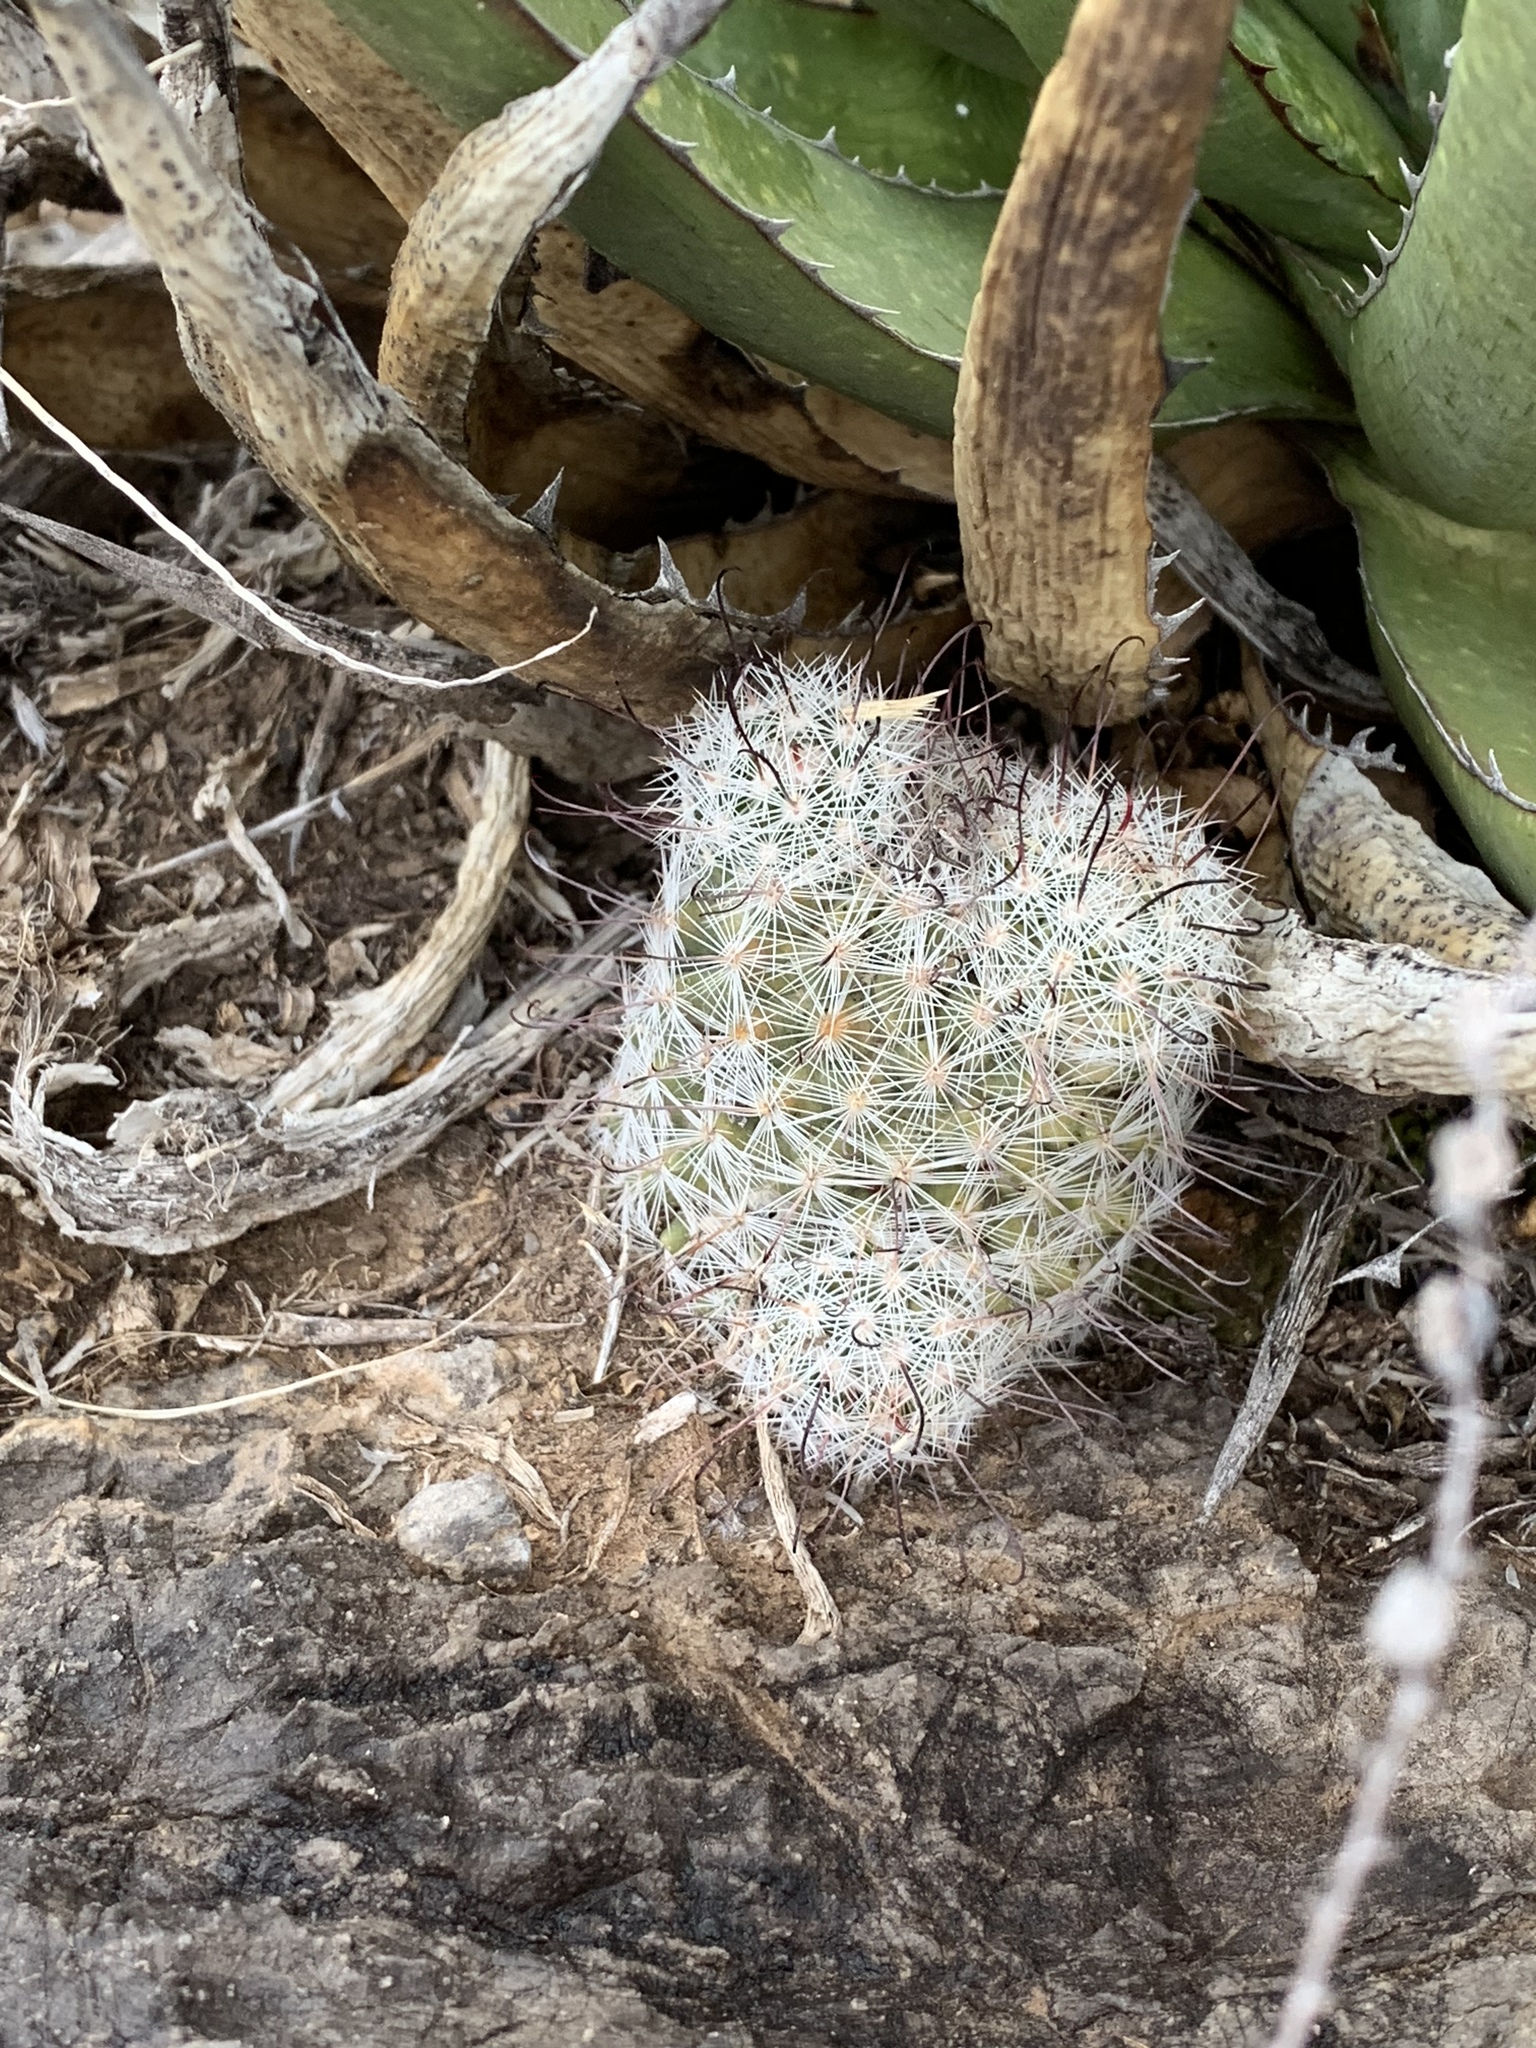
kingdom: Plantae
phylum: Tracheophyta
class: Magnoliopsida
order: Caryophyllales
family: Cactaceae
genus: Cochemiea
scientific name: Cochemiea grahamii
